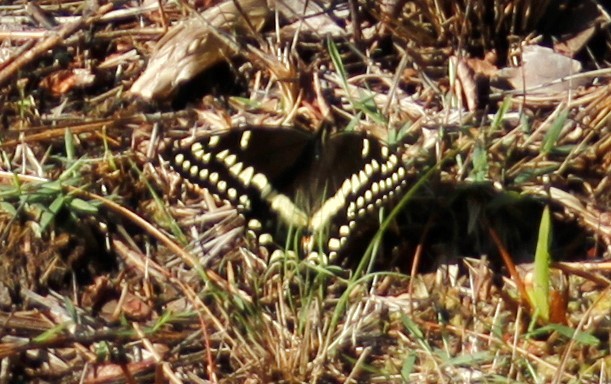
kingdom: Animalia
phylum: Arthropoda
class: Insecta
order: Lepidoptera
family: Papilionidae
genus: Papilio
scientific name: Papilio palamedes
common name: Palamedes swallowtail
